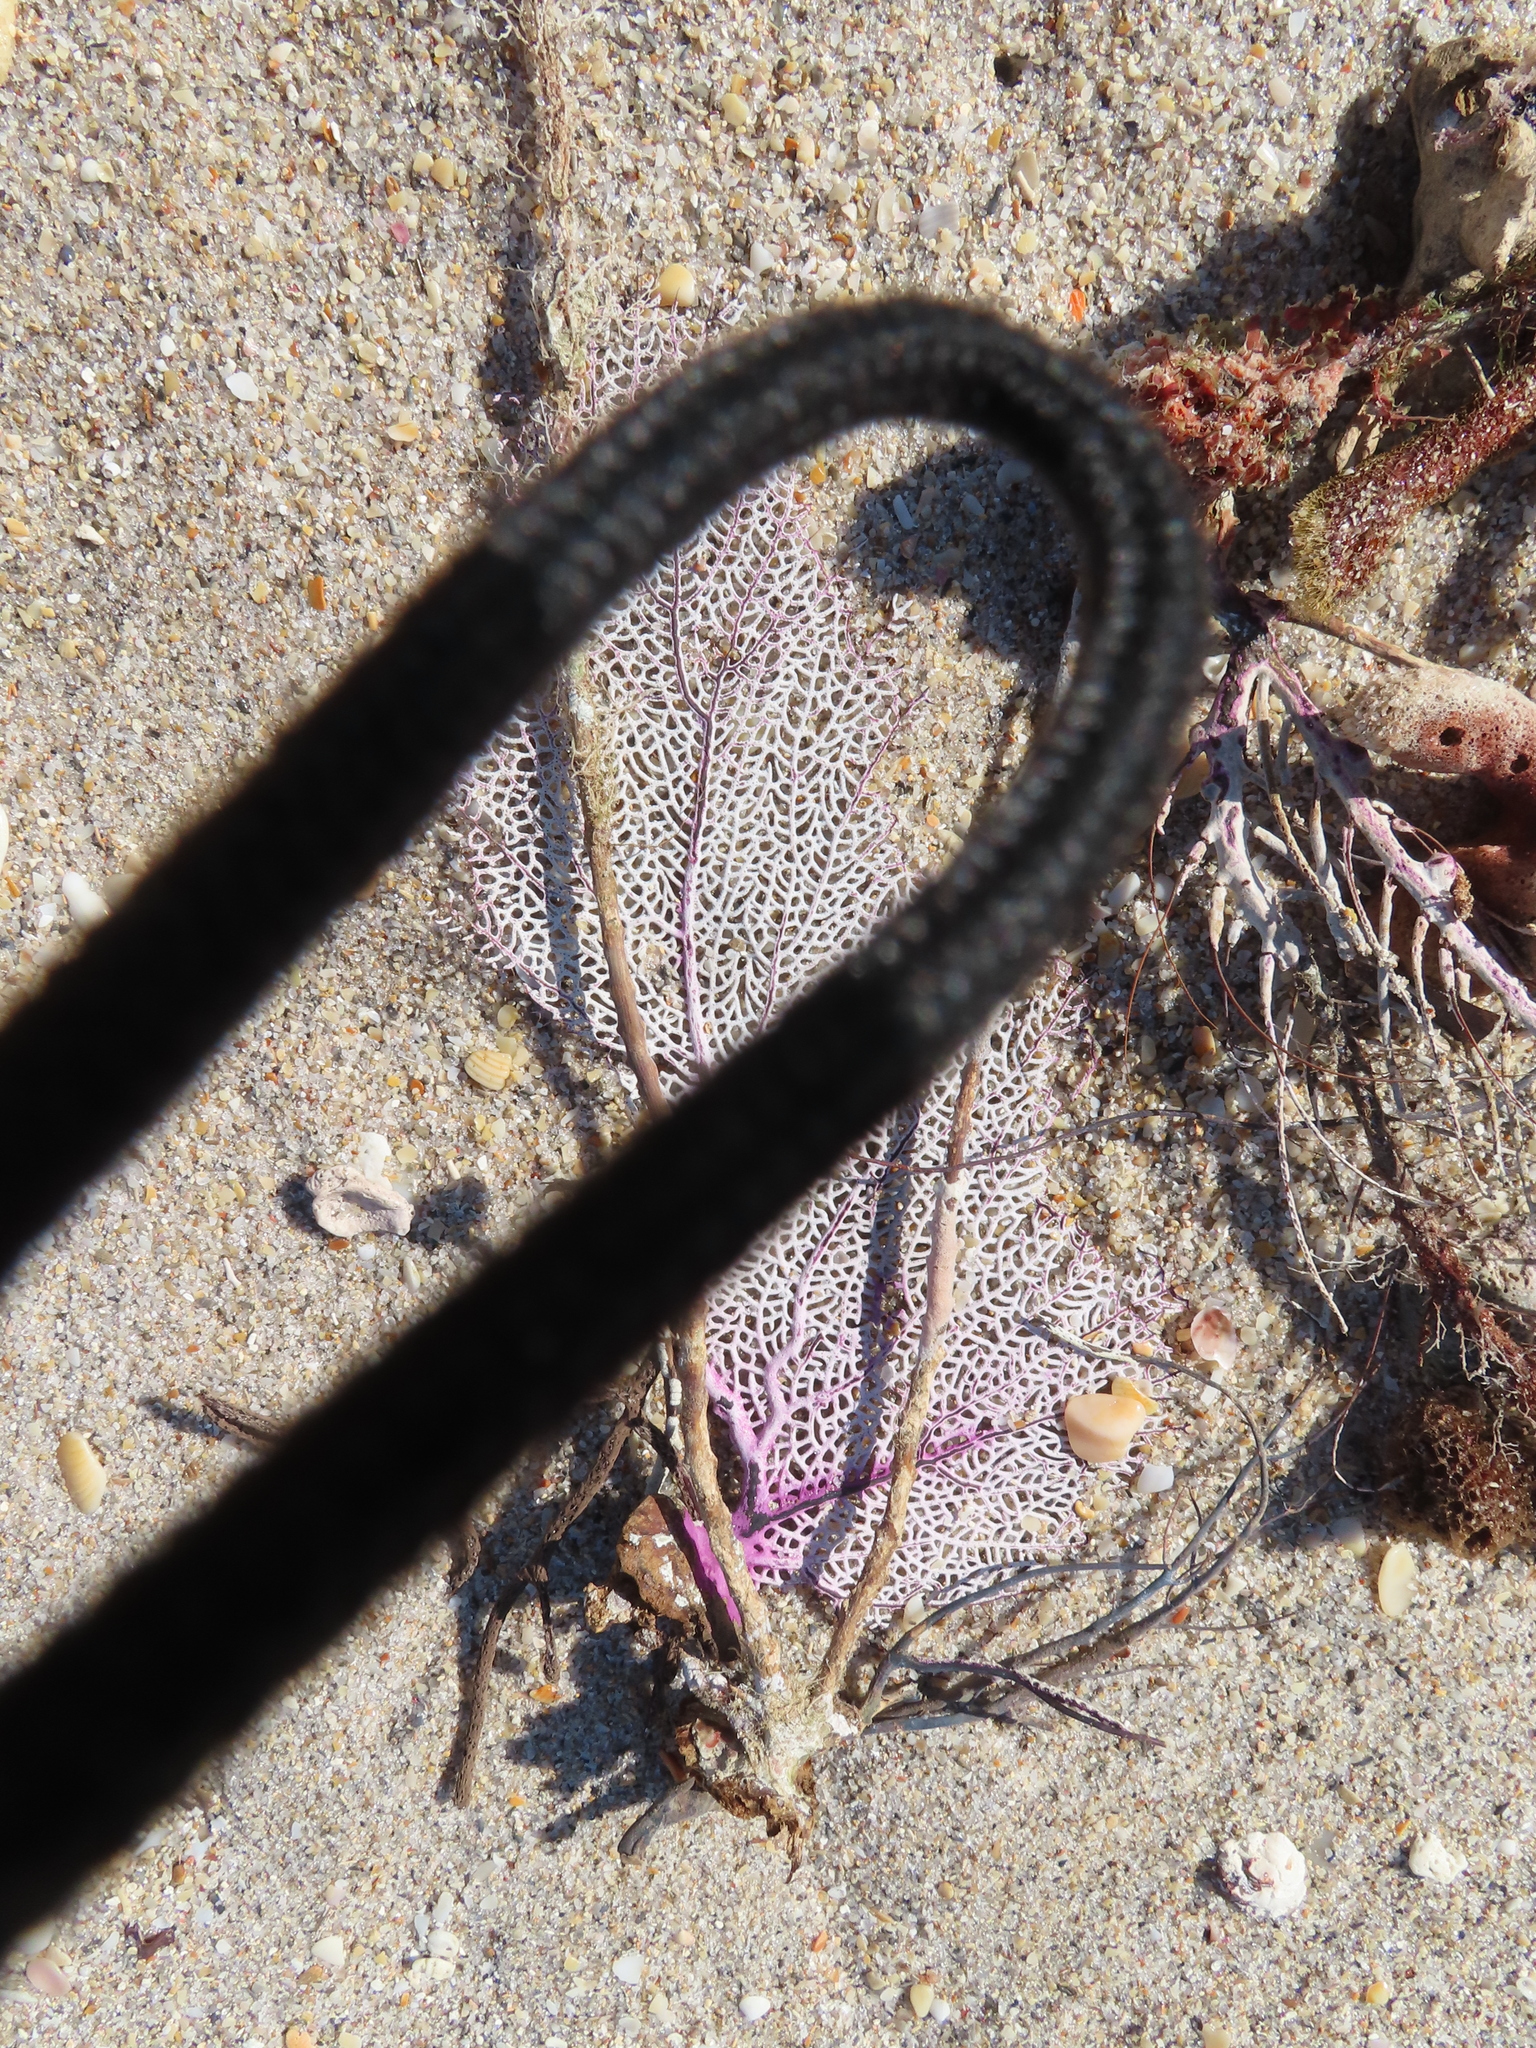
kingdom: Animalia
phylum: Cnidaria
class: Anthozoa
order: Malacalcyonacea
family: Gorgoniidae
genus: Gorgonia
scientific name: Gorgonia ventalina
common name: Common sea fan
